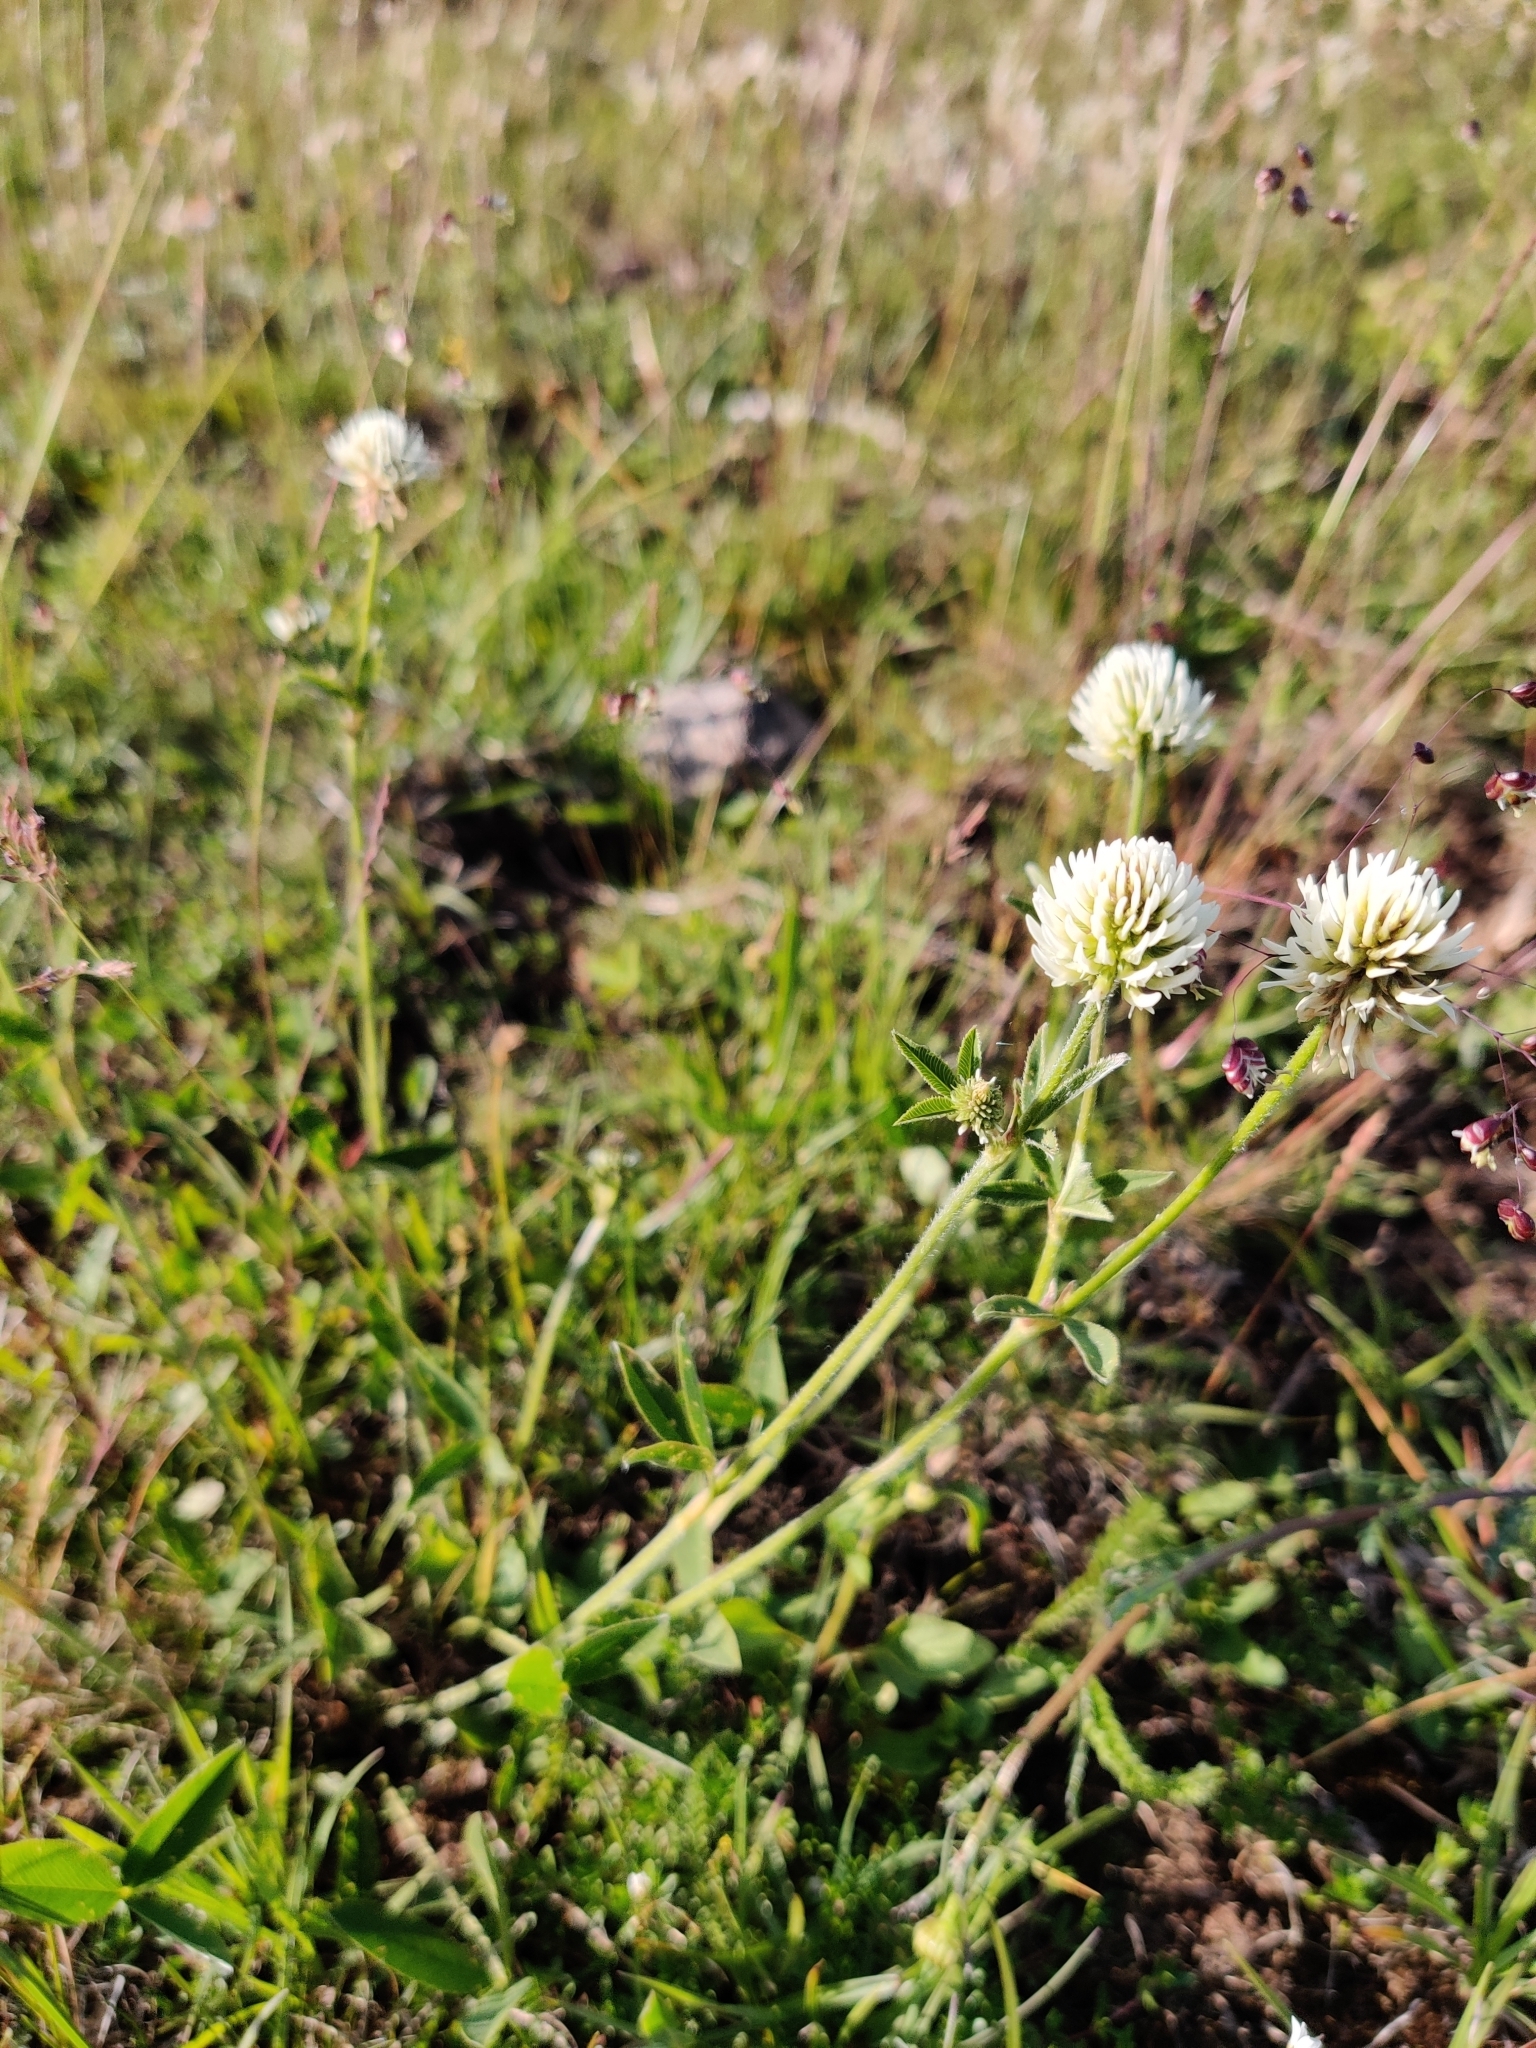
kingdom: Plantae
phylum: Tracheophyta
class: Magnoliopsida
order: Fabales
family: Fabaceae
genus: Trifolium
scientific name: Trifolium montanum
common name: Mountain clover
